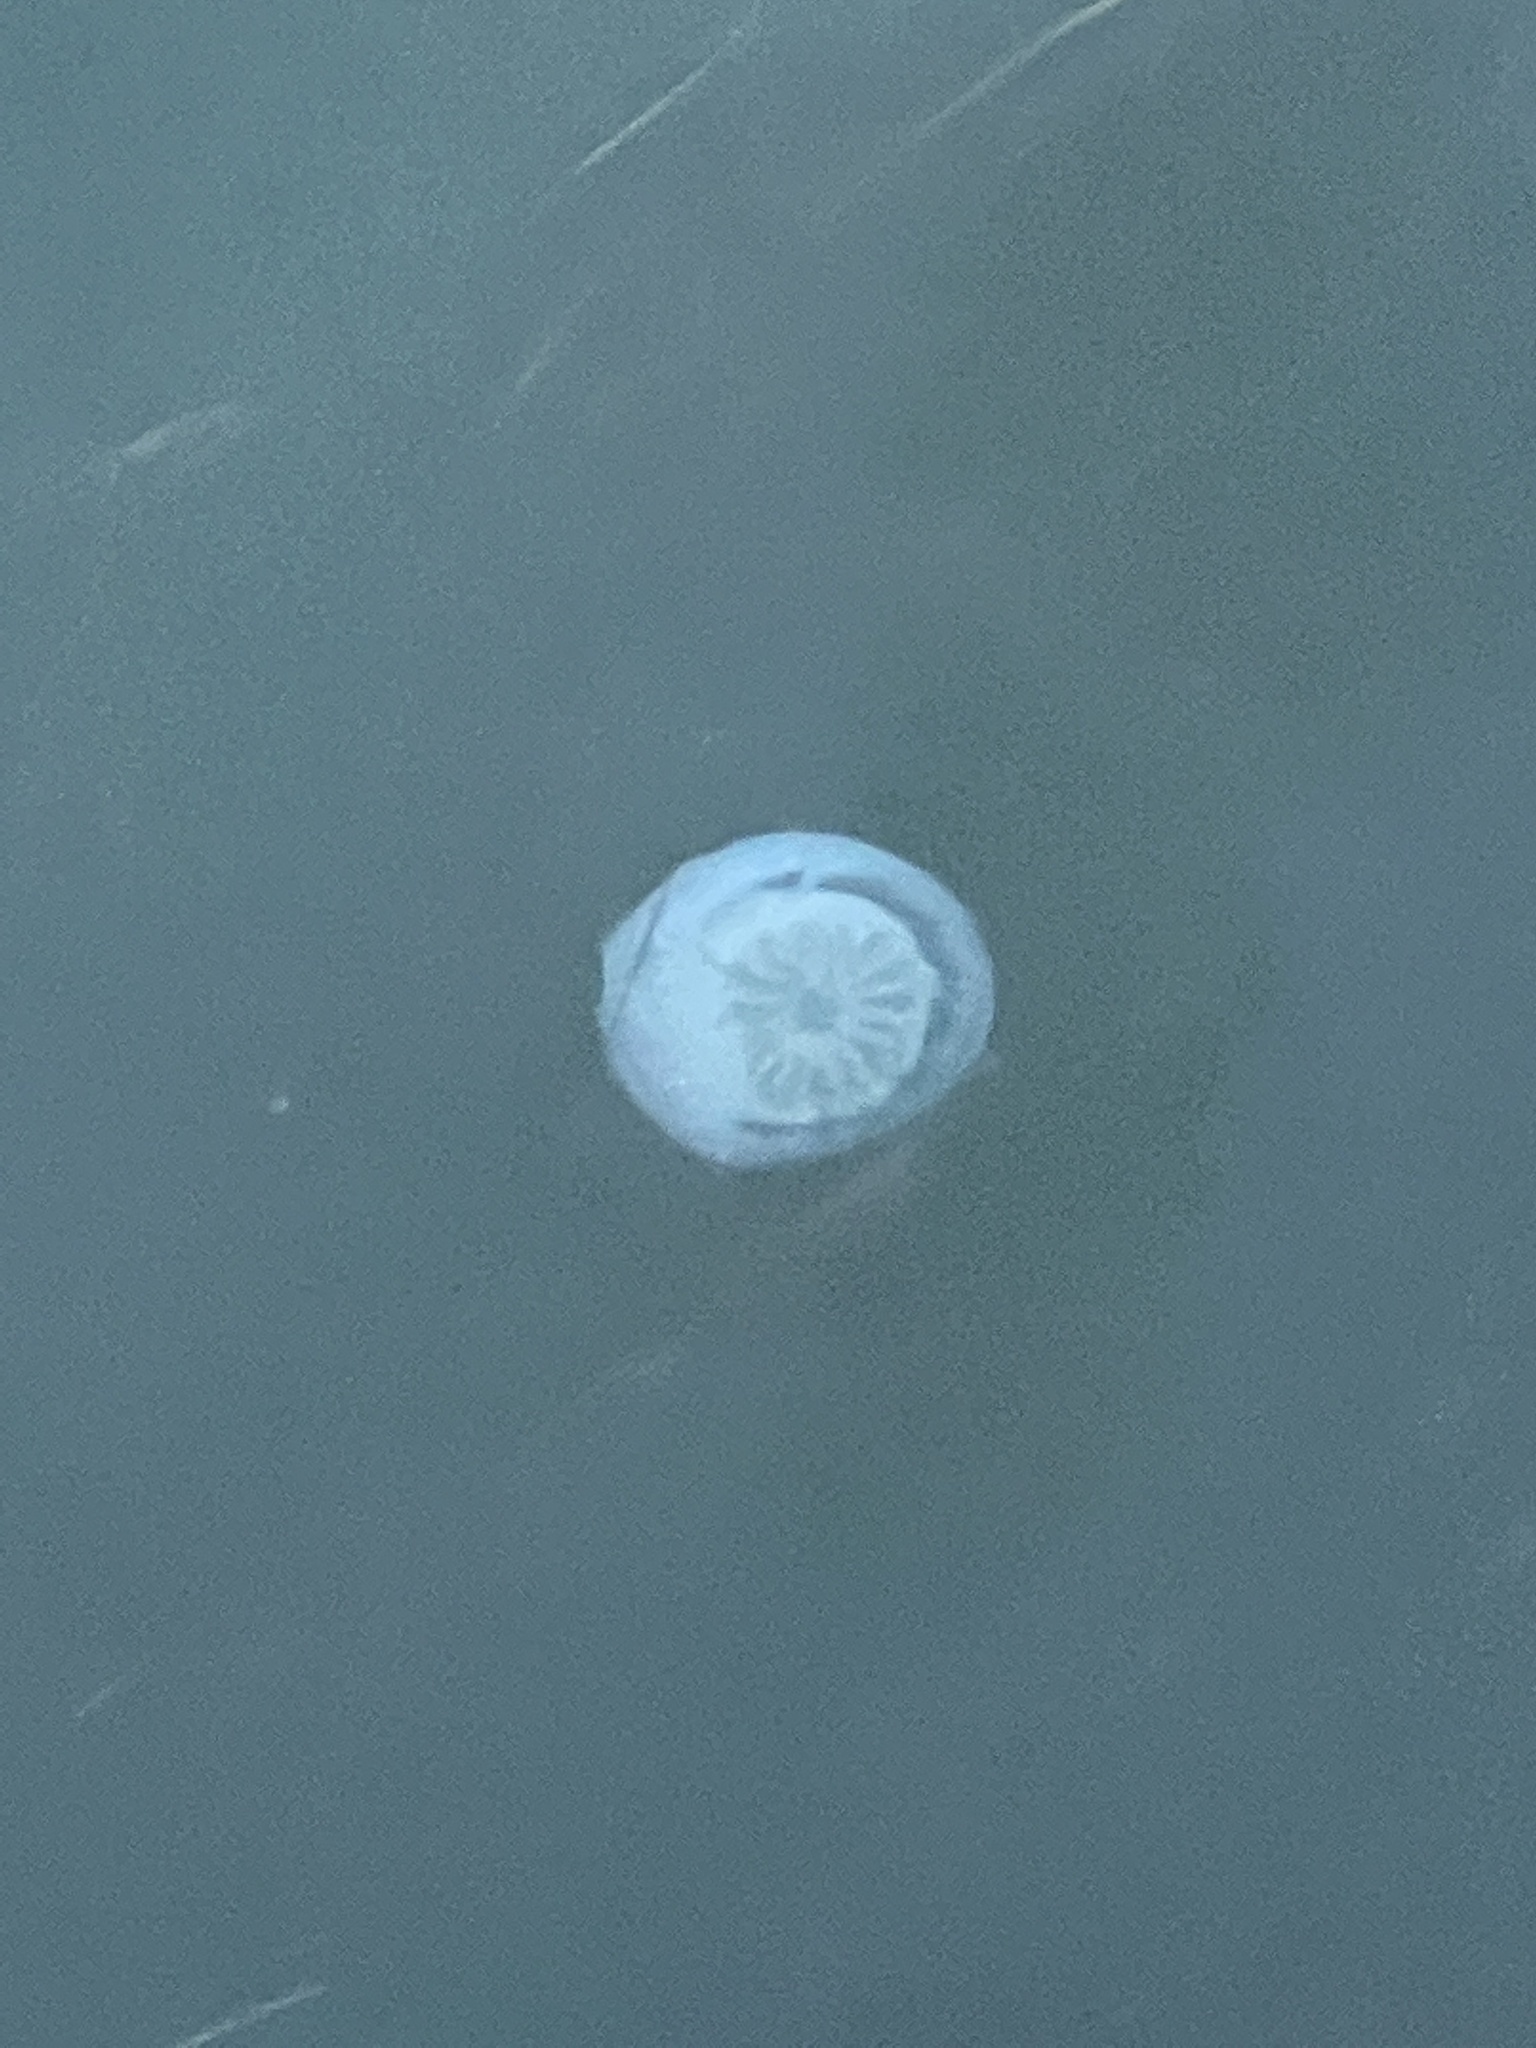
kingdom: Animalia
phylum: Cnidaria
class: Scyphozoa
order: Rhizostomeae
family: Stomolophidae
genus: Stomolophus
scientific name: Stomolophus meleagris
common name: Cabbagehead
